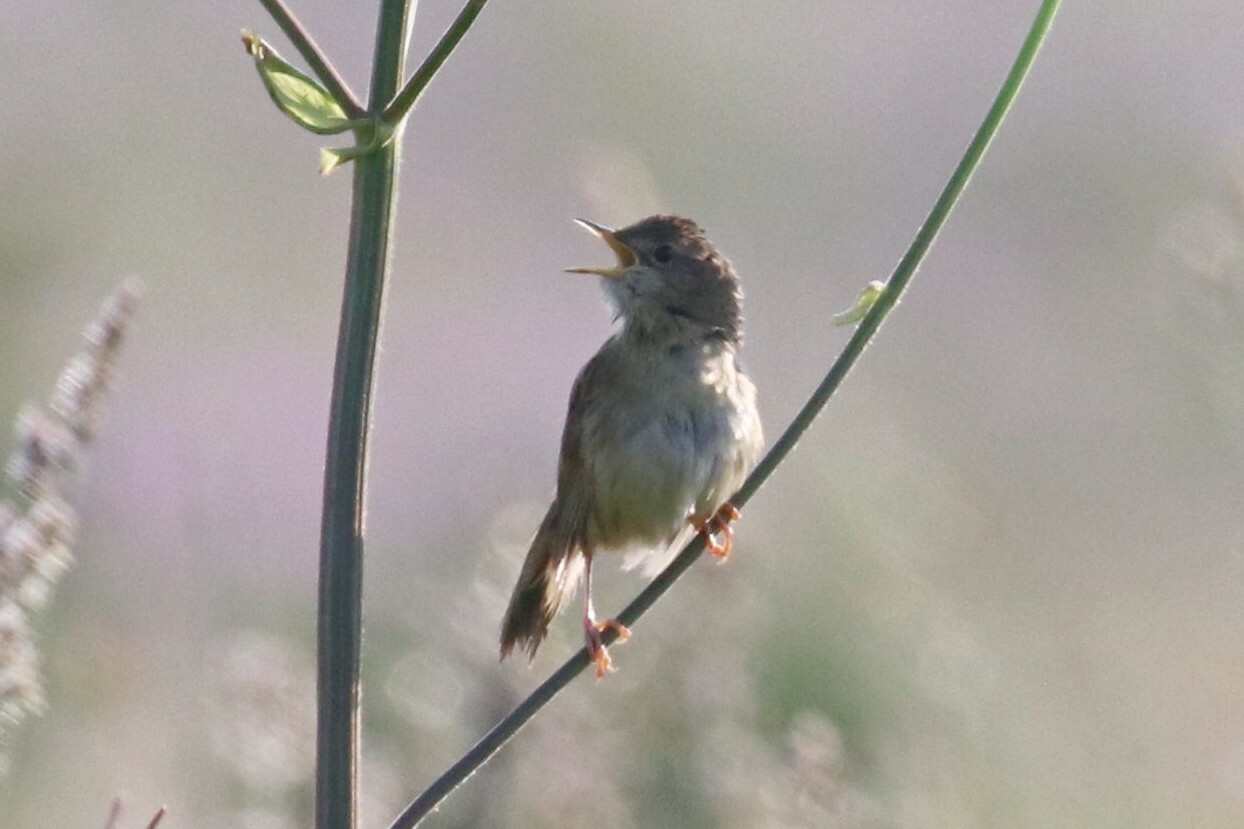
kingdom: Animalia
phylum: Chordata
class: Aves
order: Passeriformes
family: Locustellidae
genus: Locustella
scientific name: Locustella naevia
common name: Common grasshopper warbler
